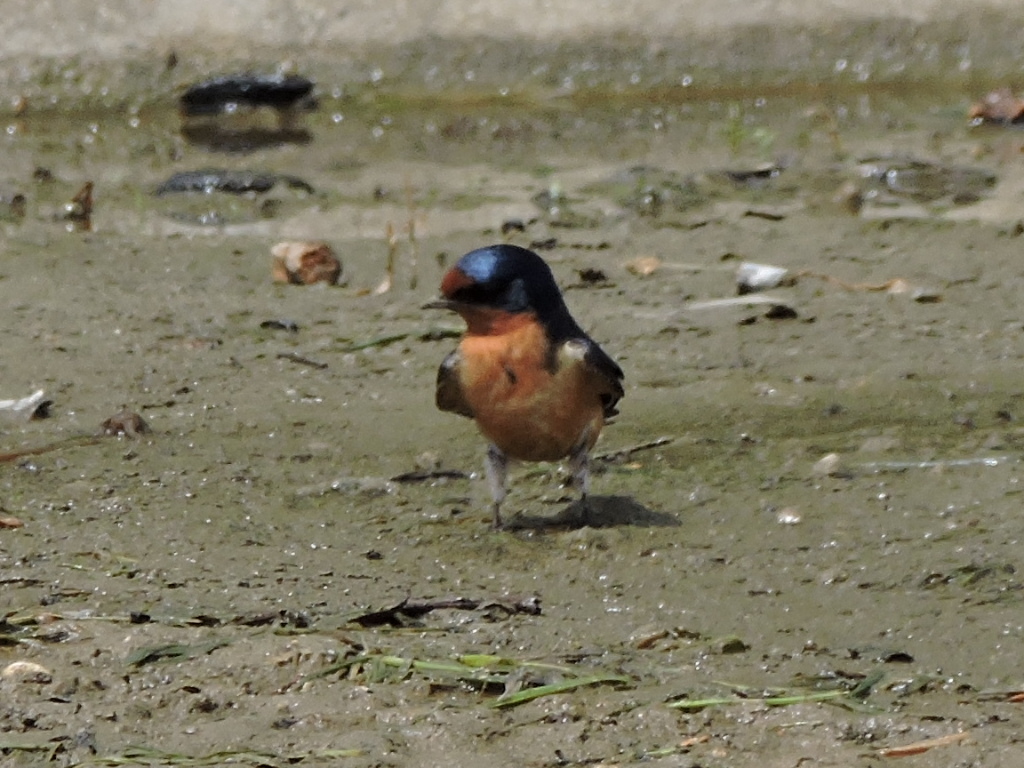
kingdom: Animalia
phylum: Chordata
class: Aves
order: Passeriformes
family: Hirundinidae
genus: Hirundo
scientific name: Hirundo rustica
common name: Barn swallow
